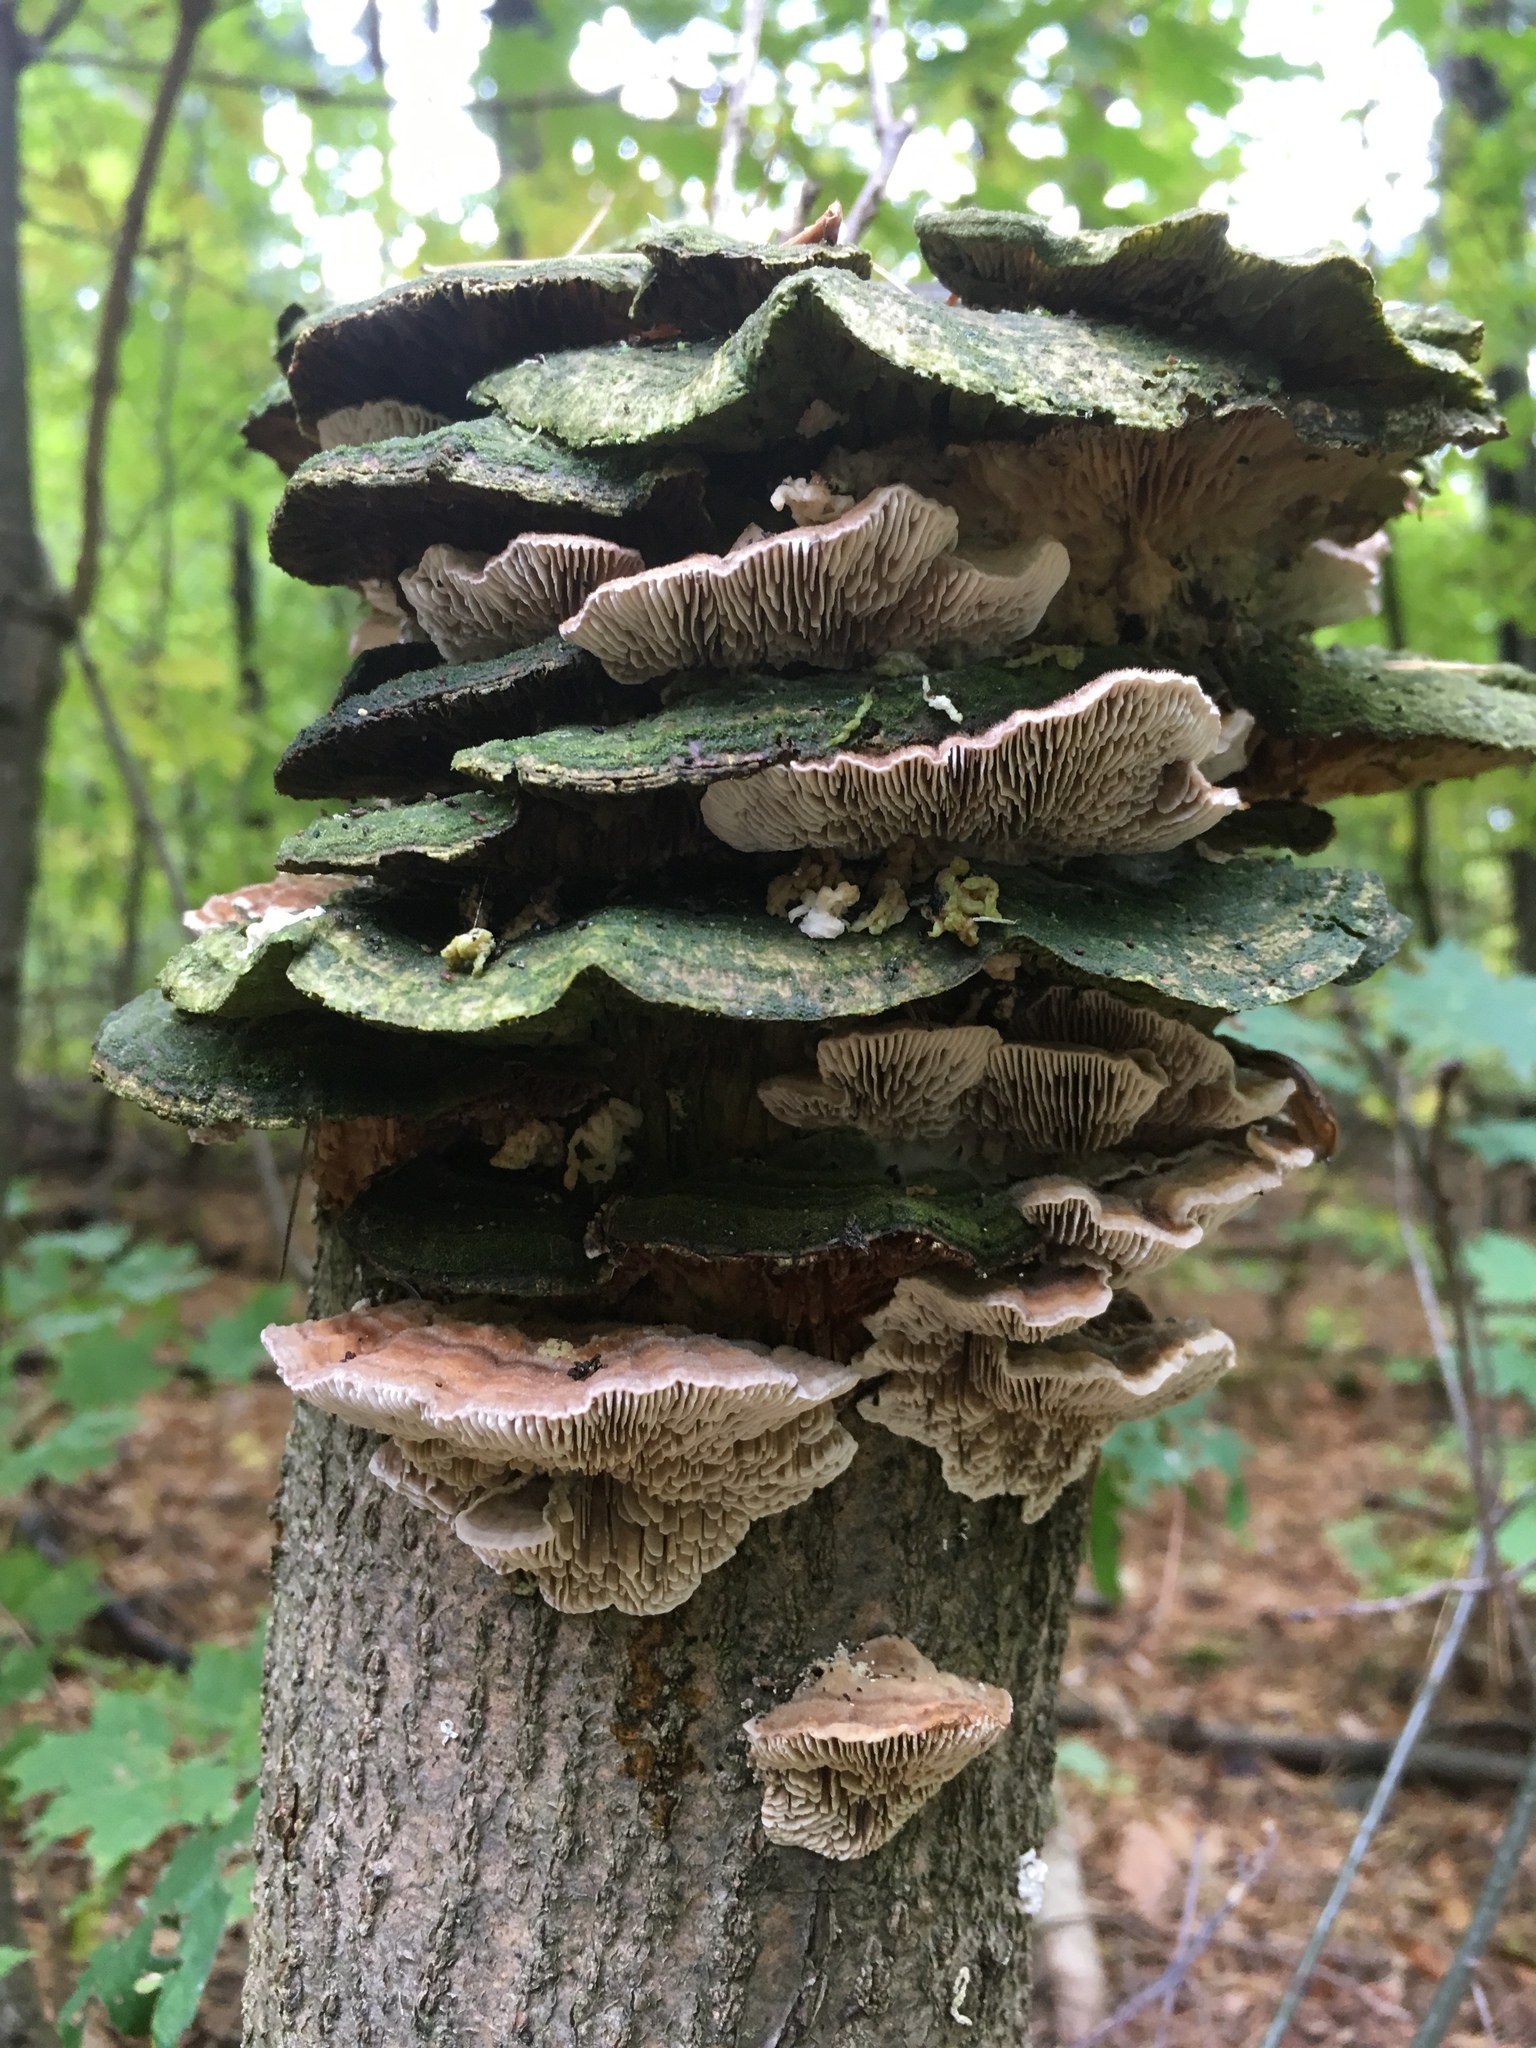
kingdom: Fungi
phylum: Basidiomycota
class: Agaricomycetes
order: Polyporales
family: Polyporaceae
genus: Lenzites
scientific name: Lenzites betulinus
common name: Birch mazegill
